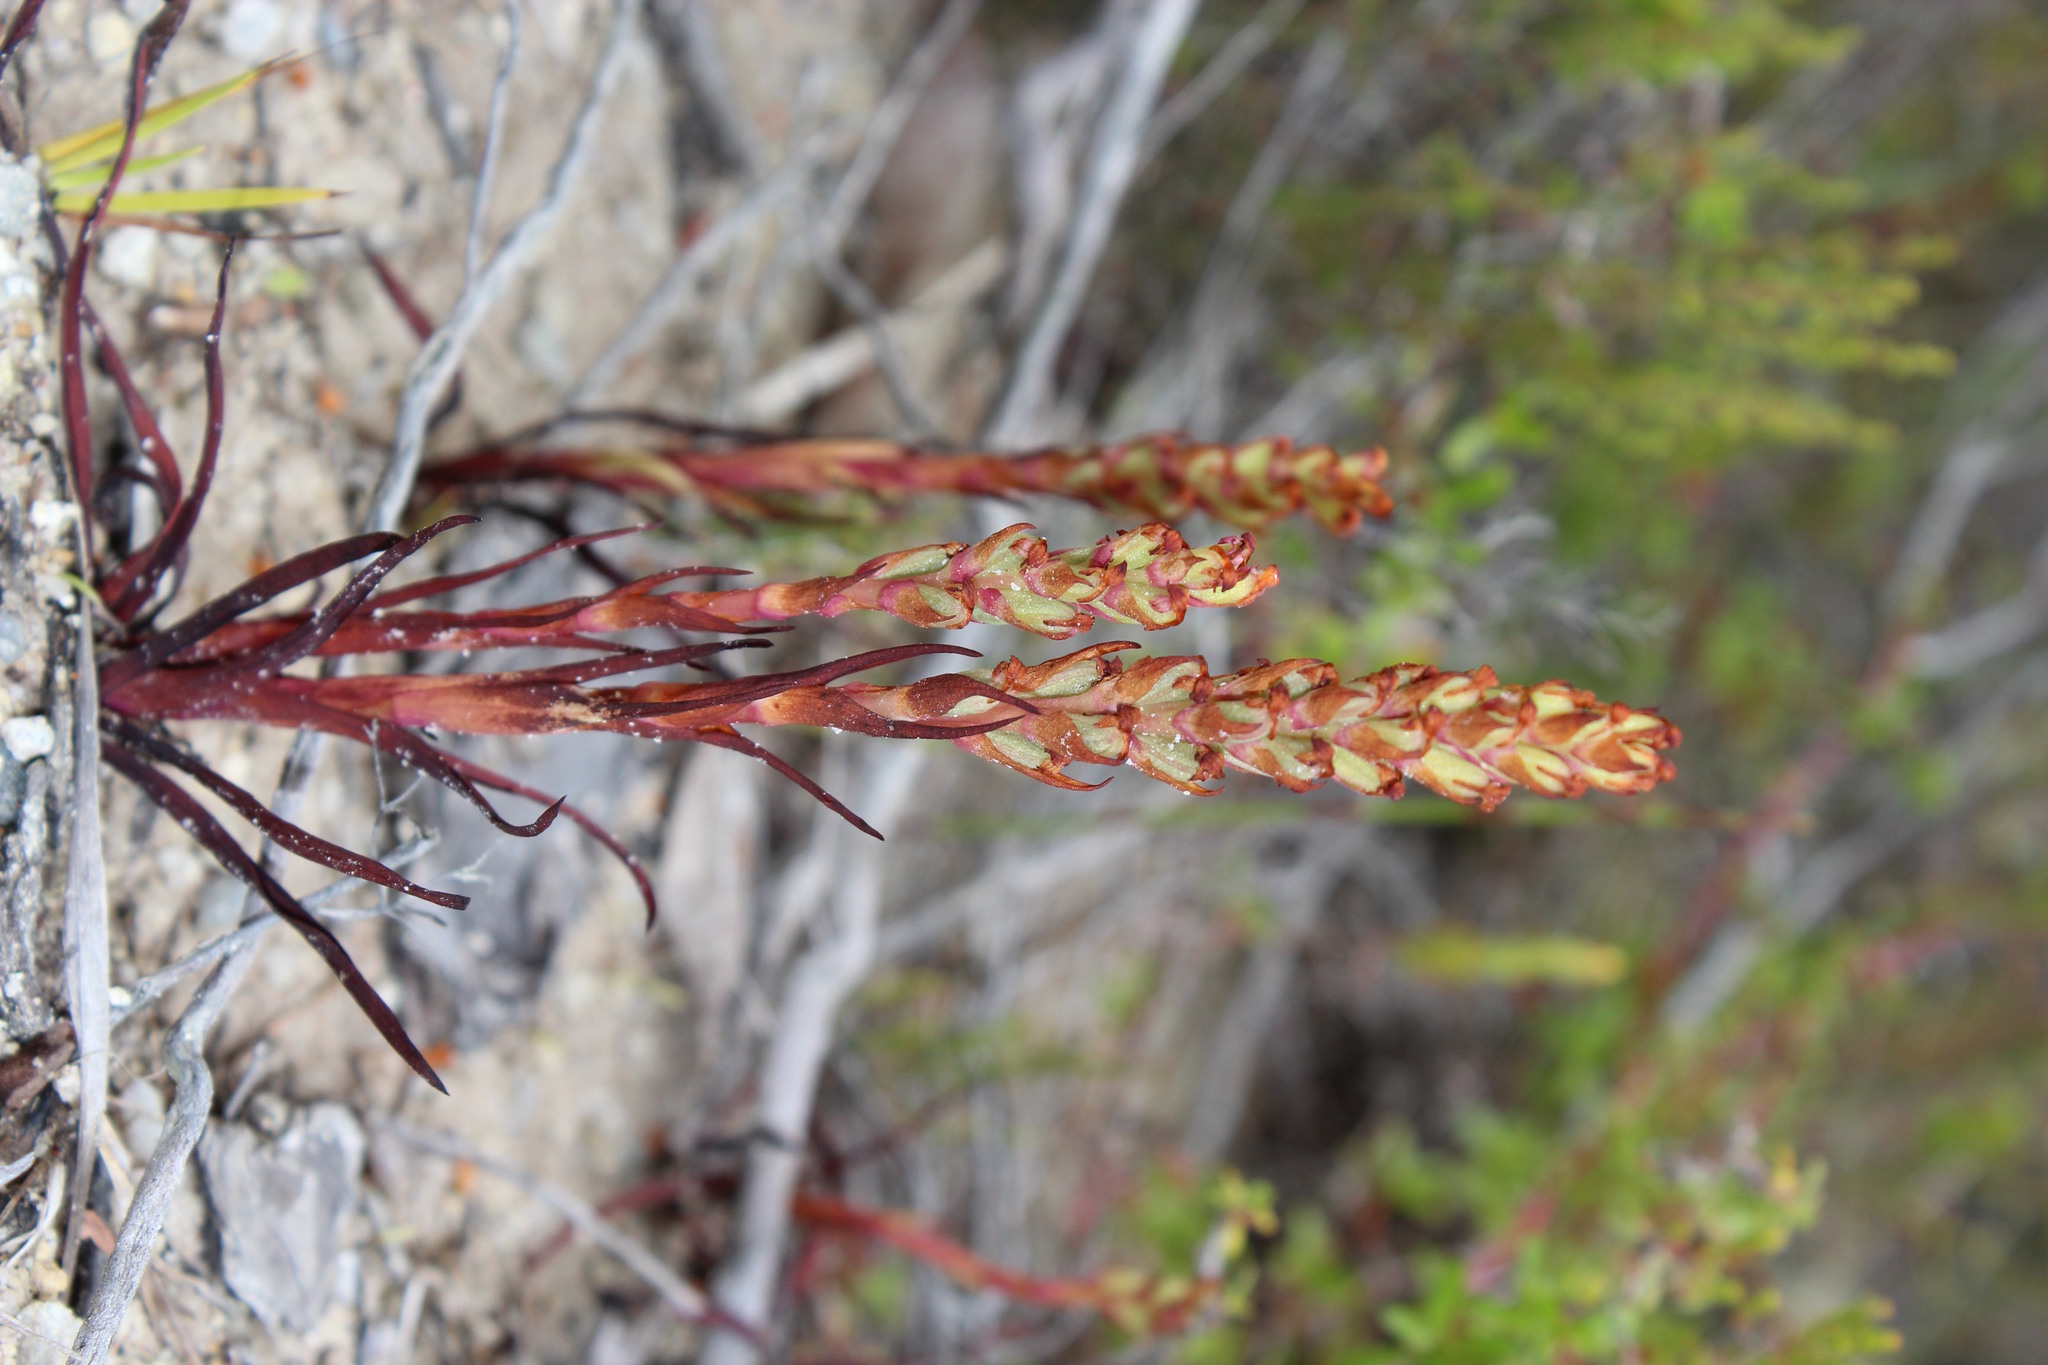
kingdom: Plantae
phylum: Tracheophyta
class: Liliopsida
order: Asparagales
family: Orchidaceae
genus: Disa
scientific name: Disa bracteata
